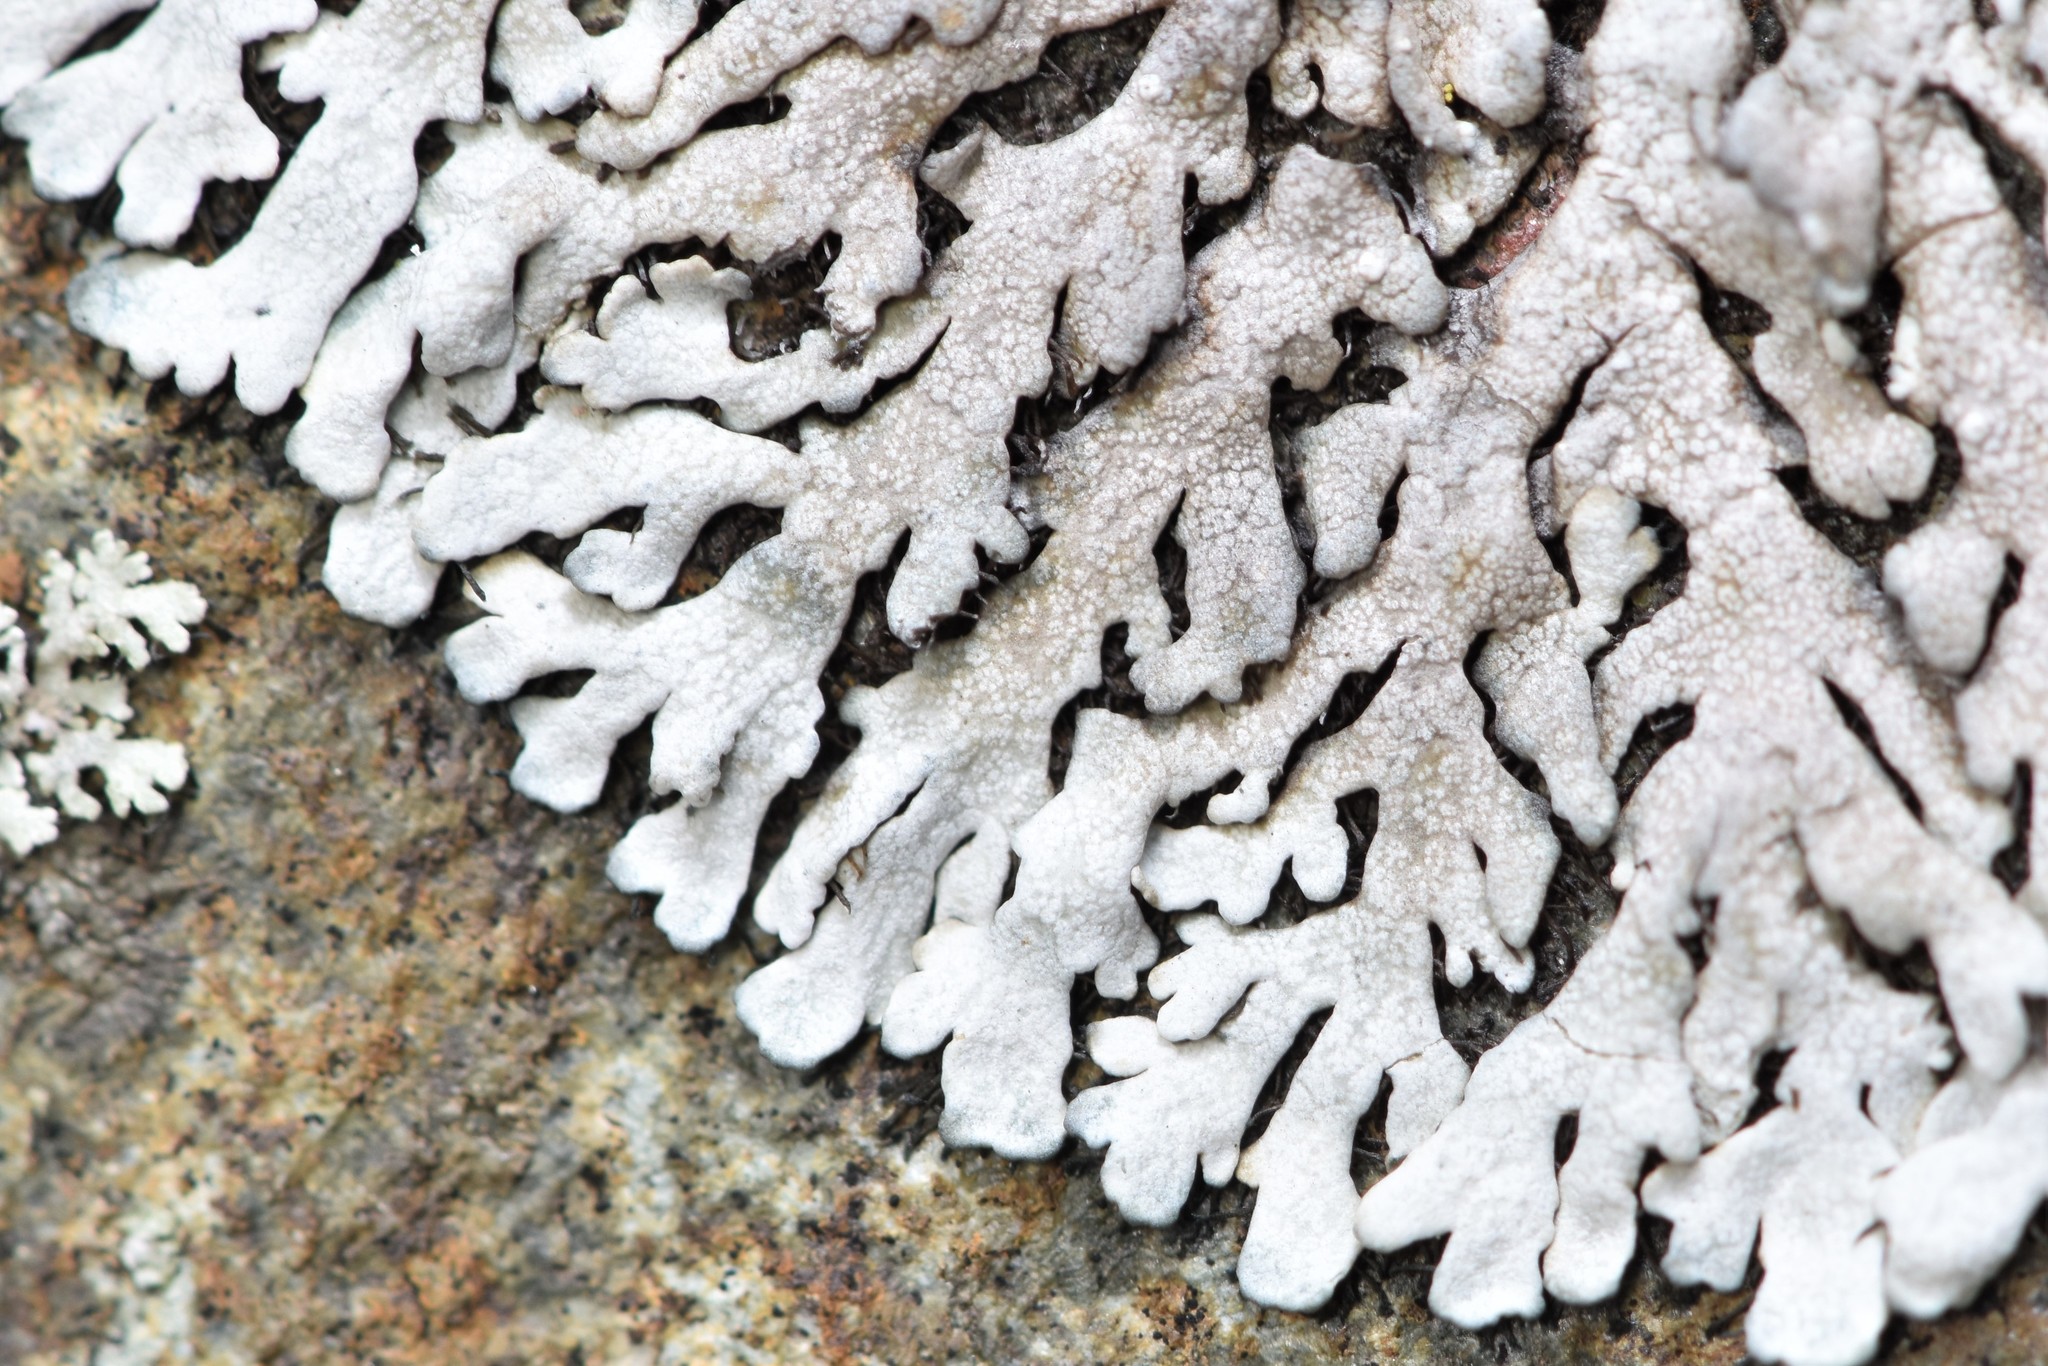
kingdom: Fungi
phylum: Ascomycota
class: Lecanoromycetes
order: Caliciales
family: Physciaceae
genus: Physcia
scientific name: Physcia caesia
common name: Blue-gray rosette lichen
